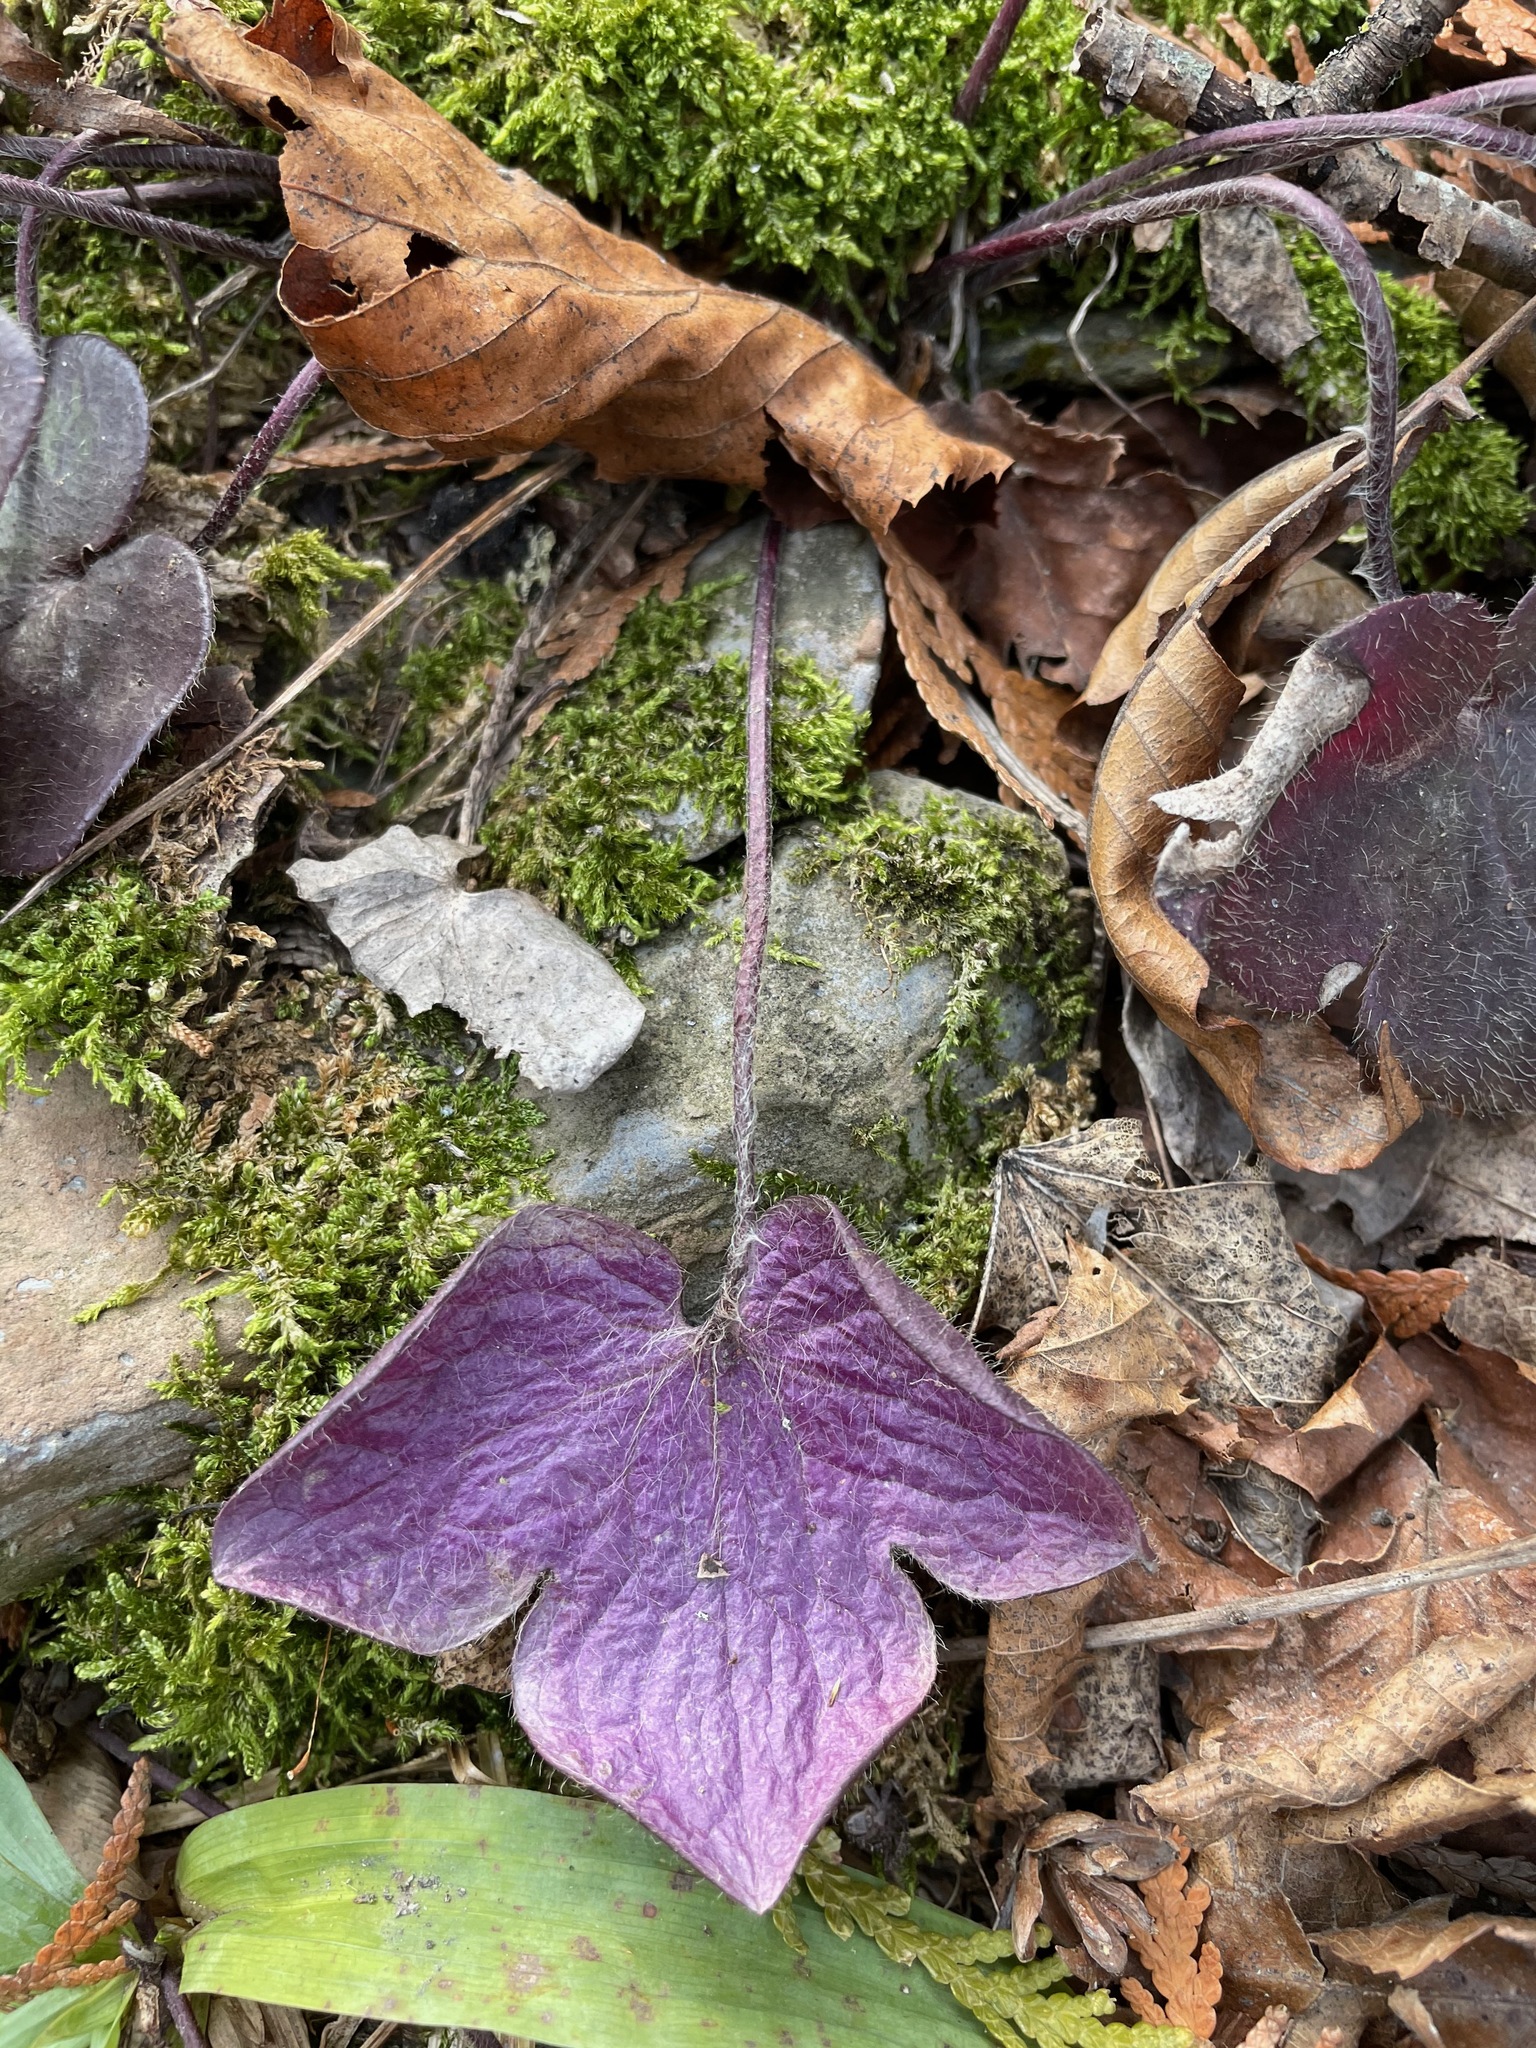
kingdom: Plantae
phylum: Tracheophyta
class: Magnoliopsida
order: Ranunculales
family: Ranunculaceae
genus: Hepatica
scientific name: Hepatica americana
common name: American hepatica
